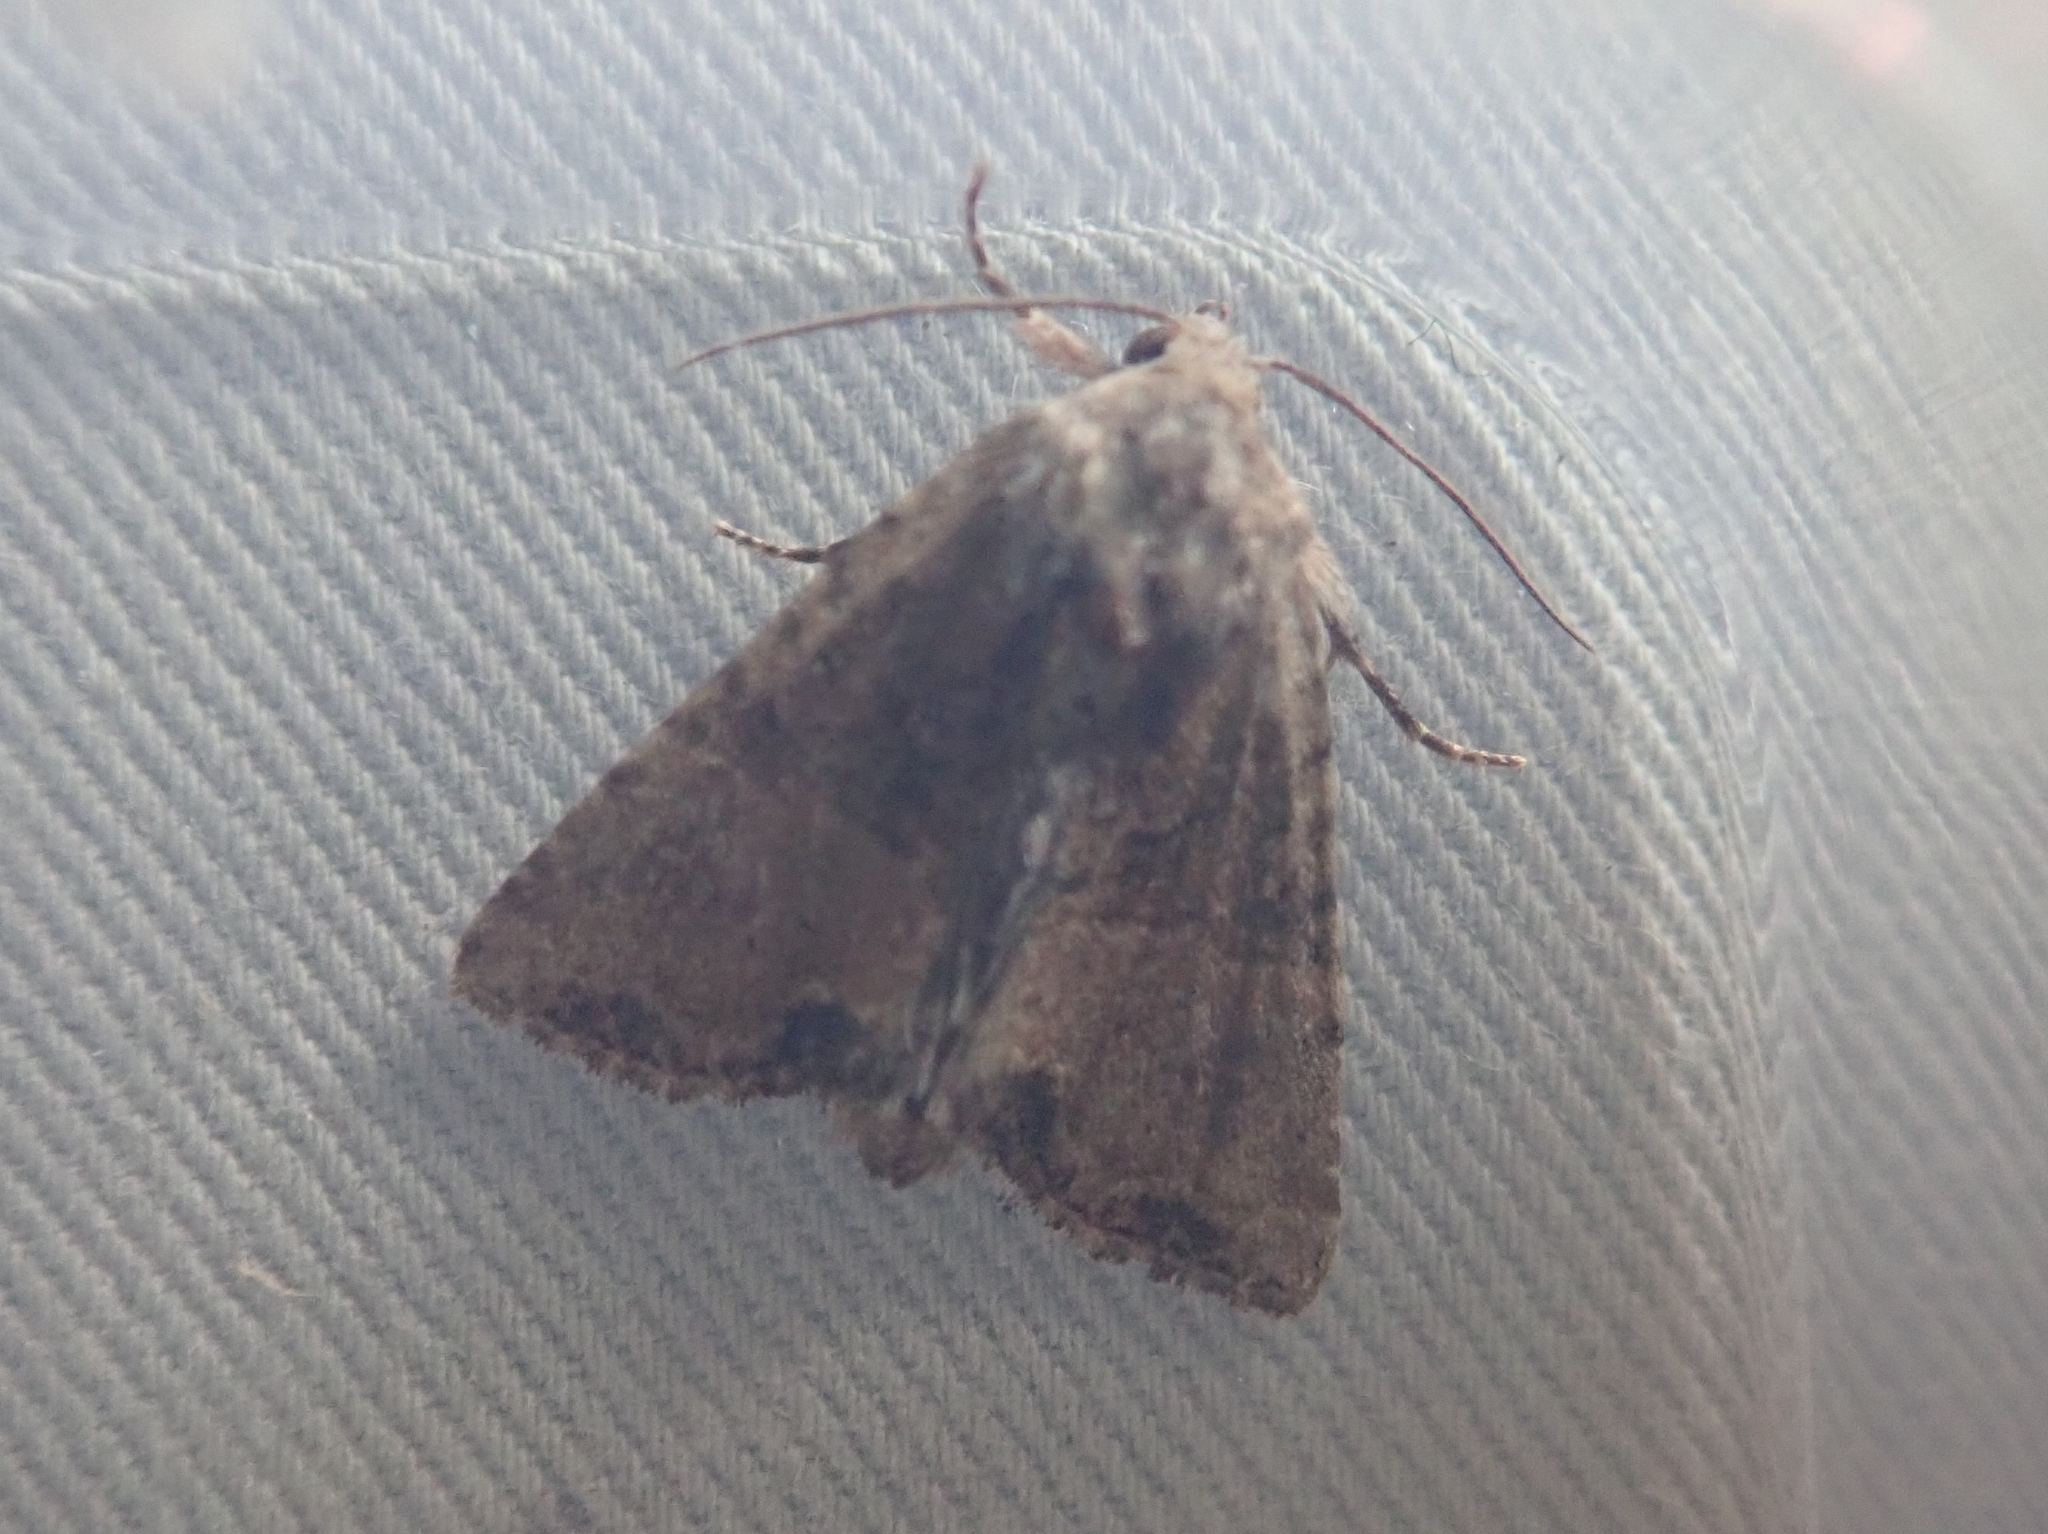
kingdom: Animalia
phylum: Arthropoda
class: Insecta
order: Lepidoptera
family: Noctuidae
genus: Mesoligia
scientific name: Mesoligia furuncula
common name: Cloaked minor
